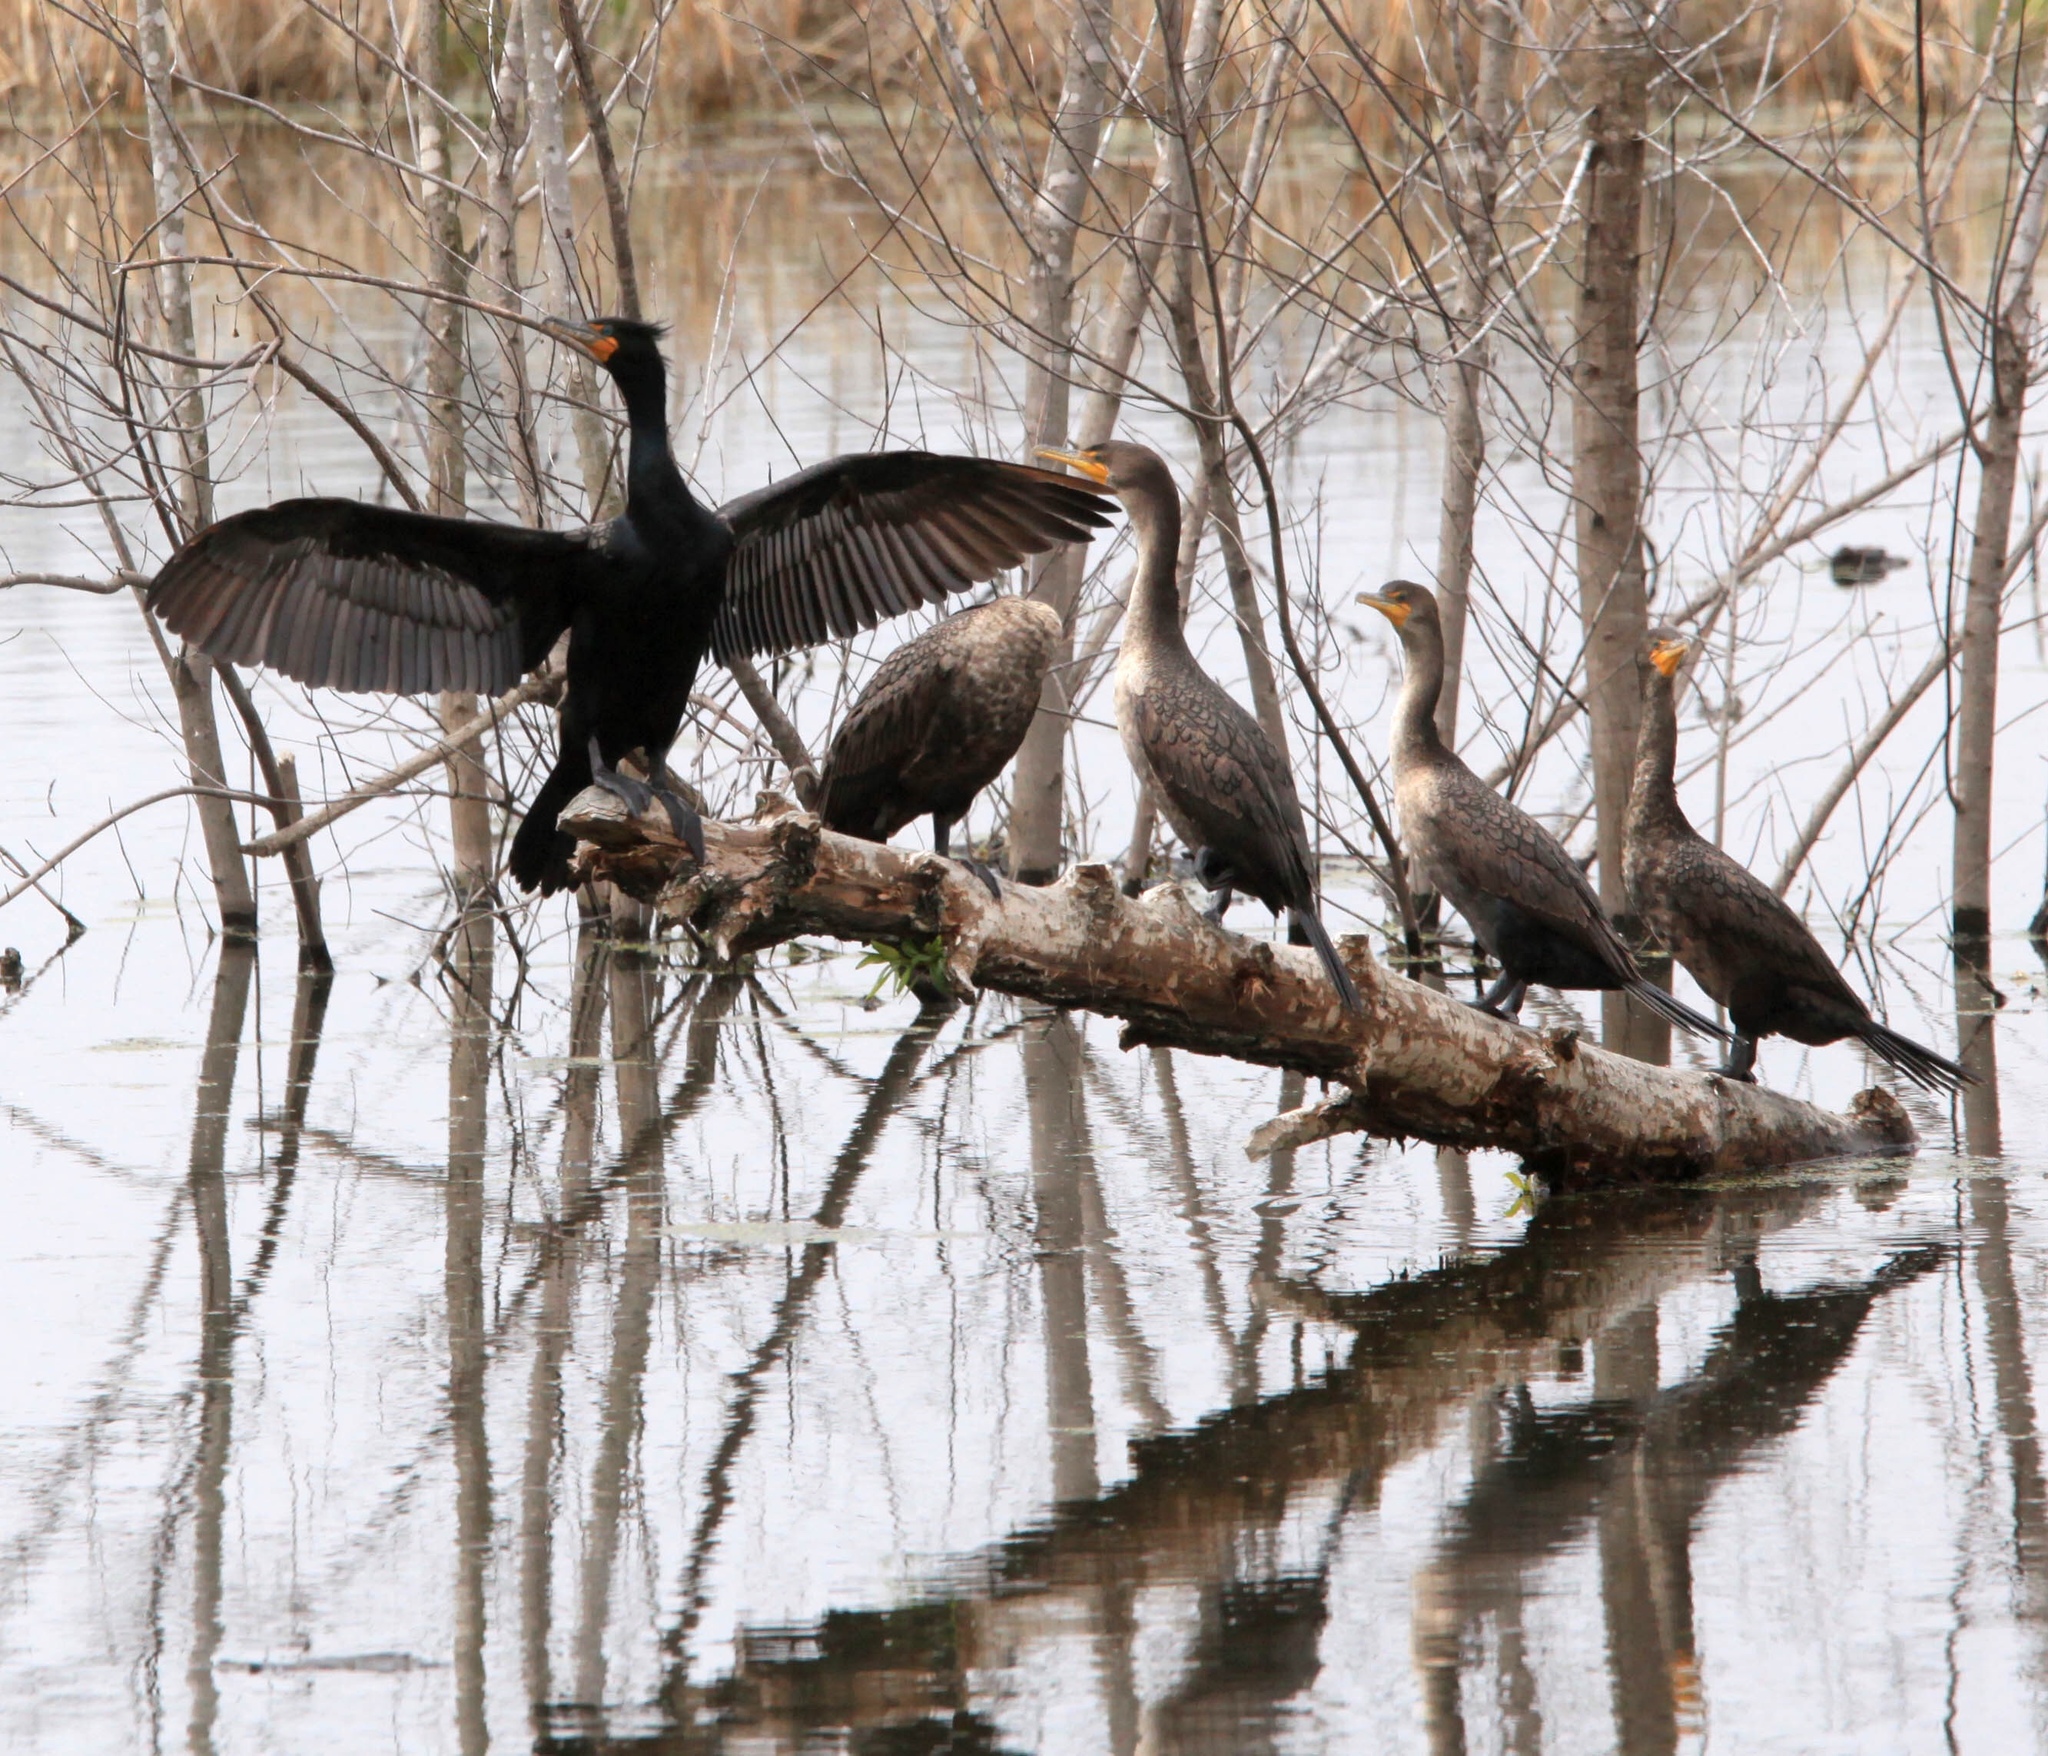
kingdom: Animalia
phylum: Chordata
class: Aves
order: Suliformes
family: Phalacrocoracidae
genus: Phalacrocorax
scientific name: Phalacrocorax auritus
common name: Double-crested cormorant
